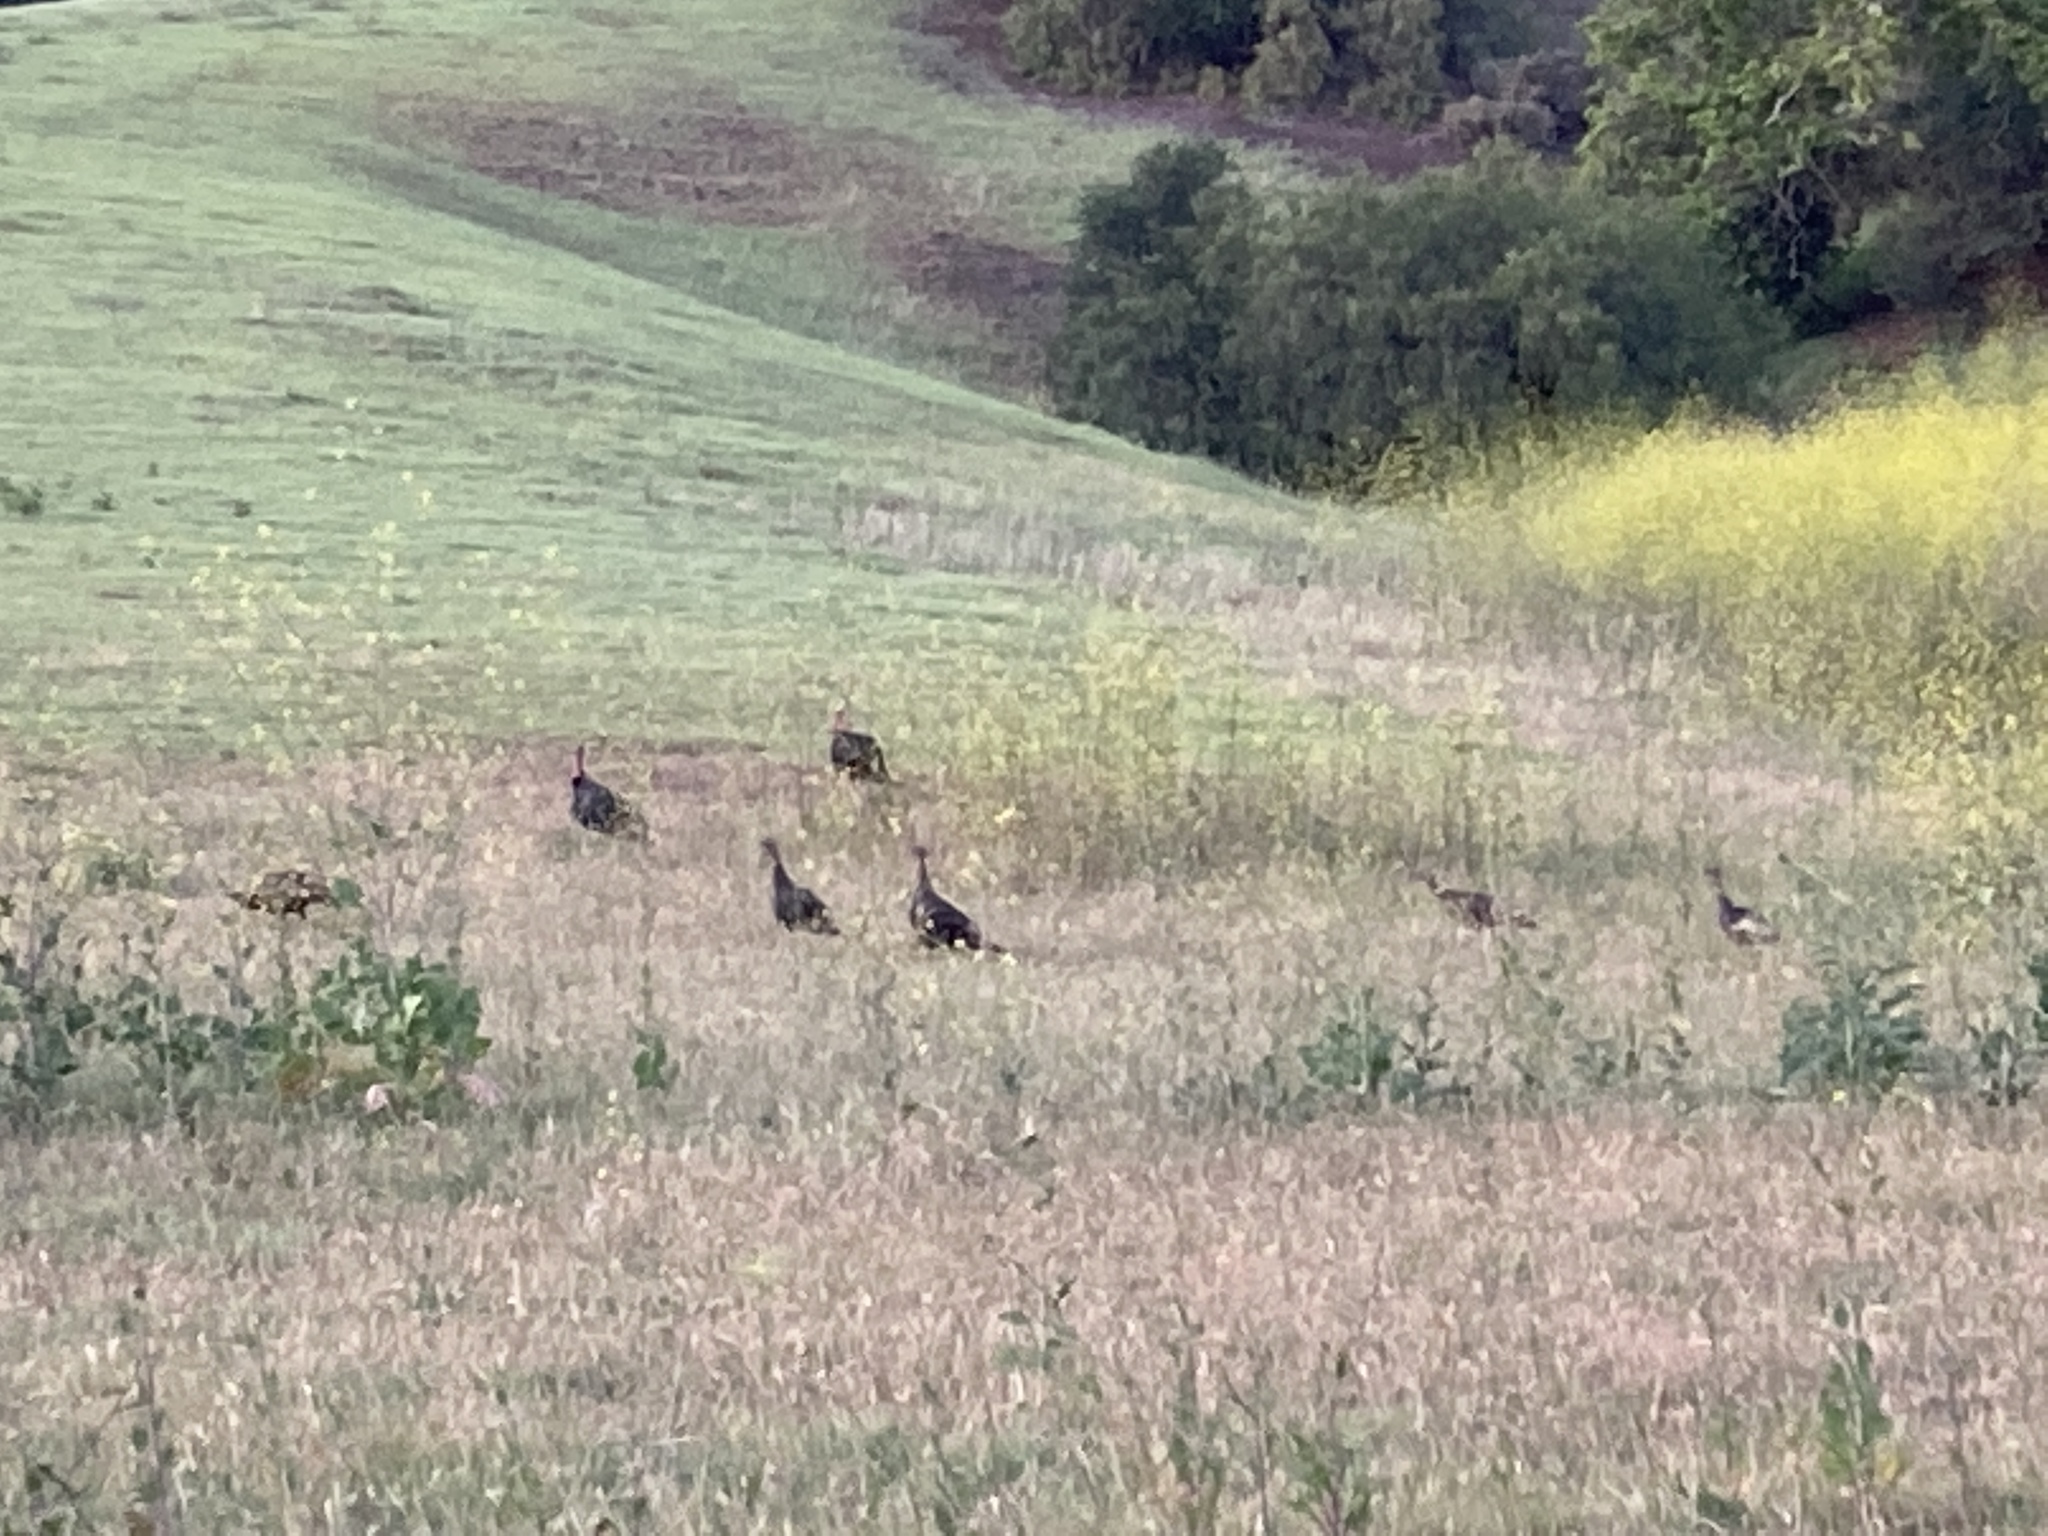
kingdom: Animalia
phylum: Chordata
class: Aves
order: Galliformes
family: Phasianidae
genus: Meleagris
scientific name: Meleagris gallopavo
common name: Wild turkey
